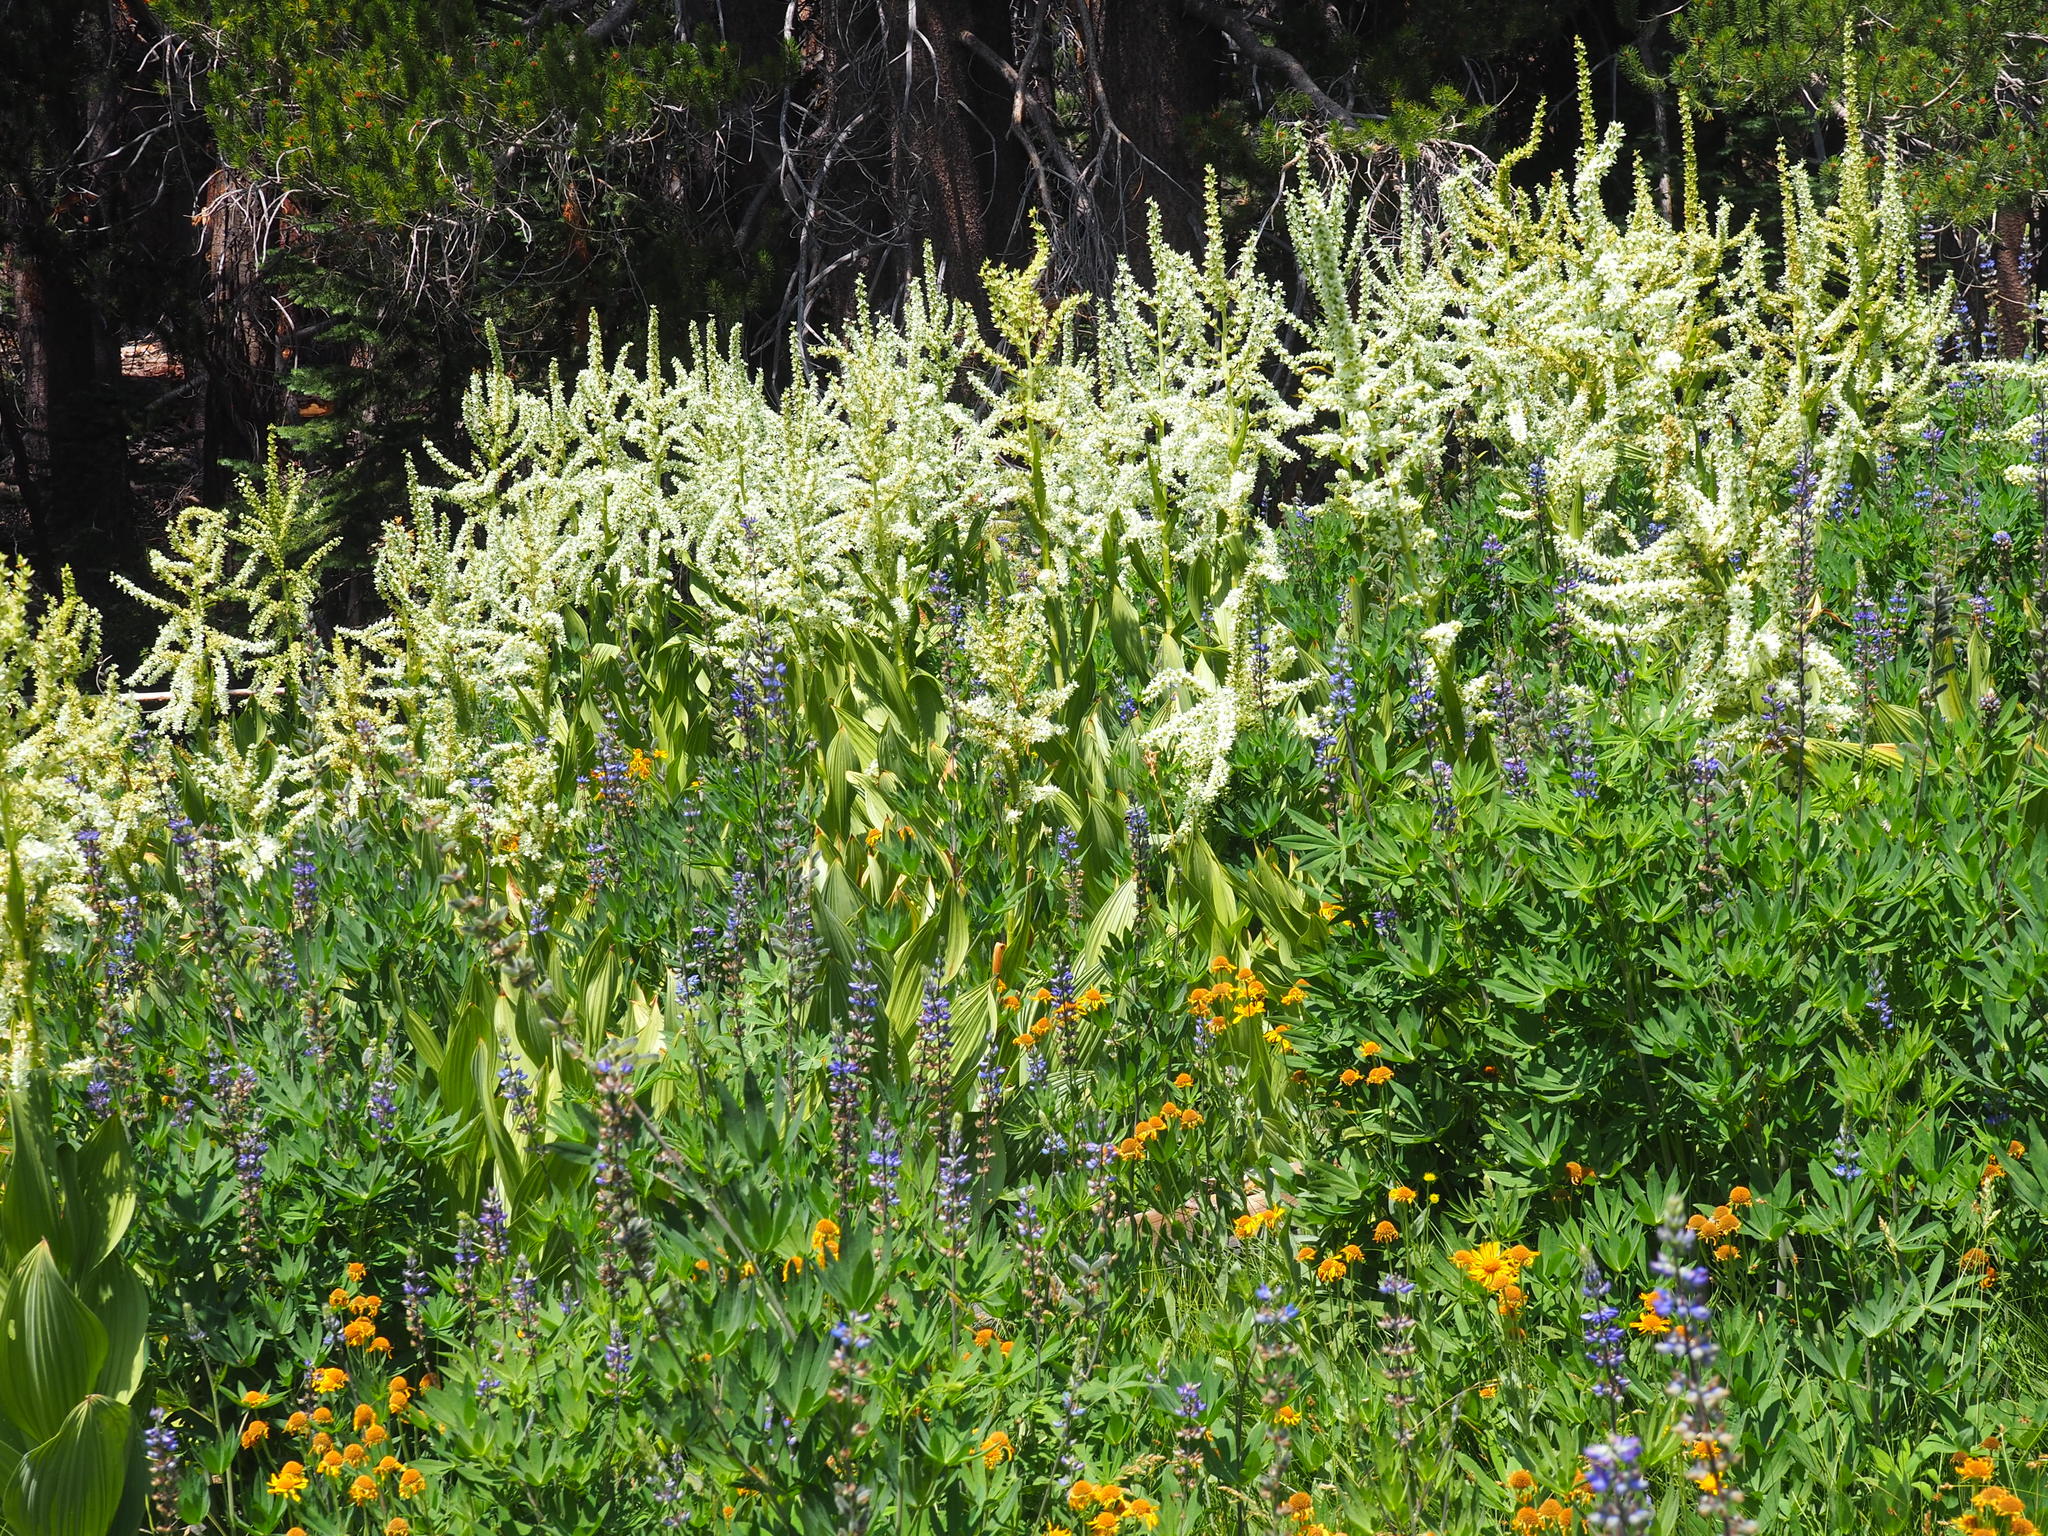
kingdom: Plantae
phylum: Tracheophyta
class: Liliopsida
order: Liliales
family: Melanthiaceae
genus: Veratrum
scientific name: Veratrum californicum
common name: California veratrum
